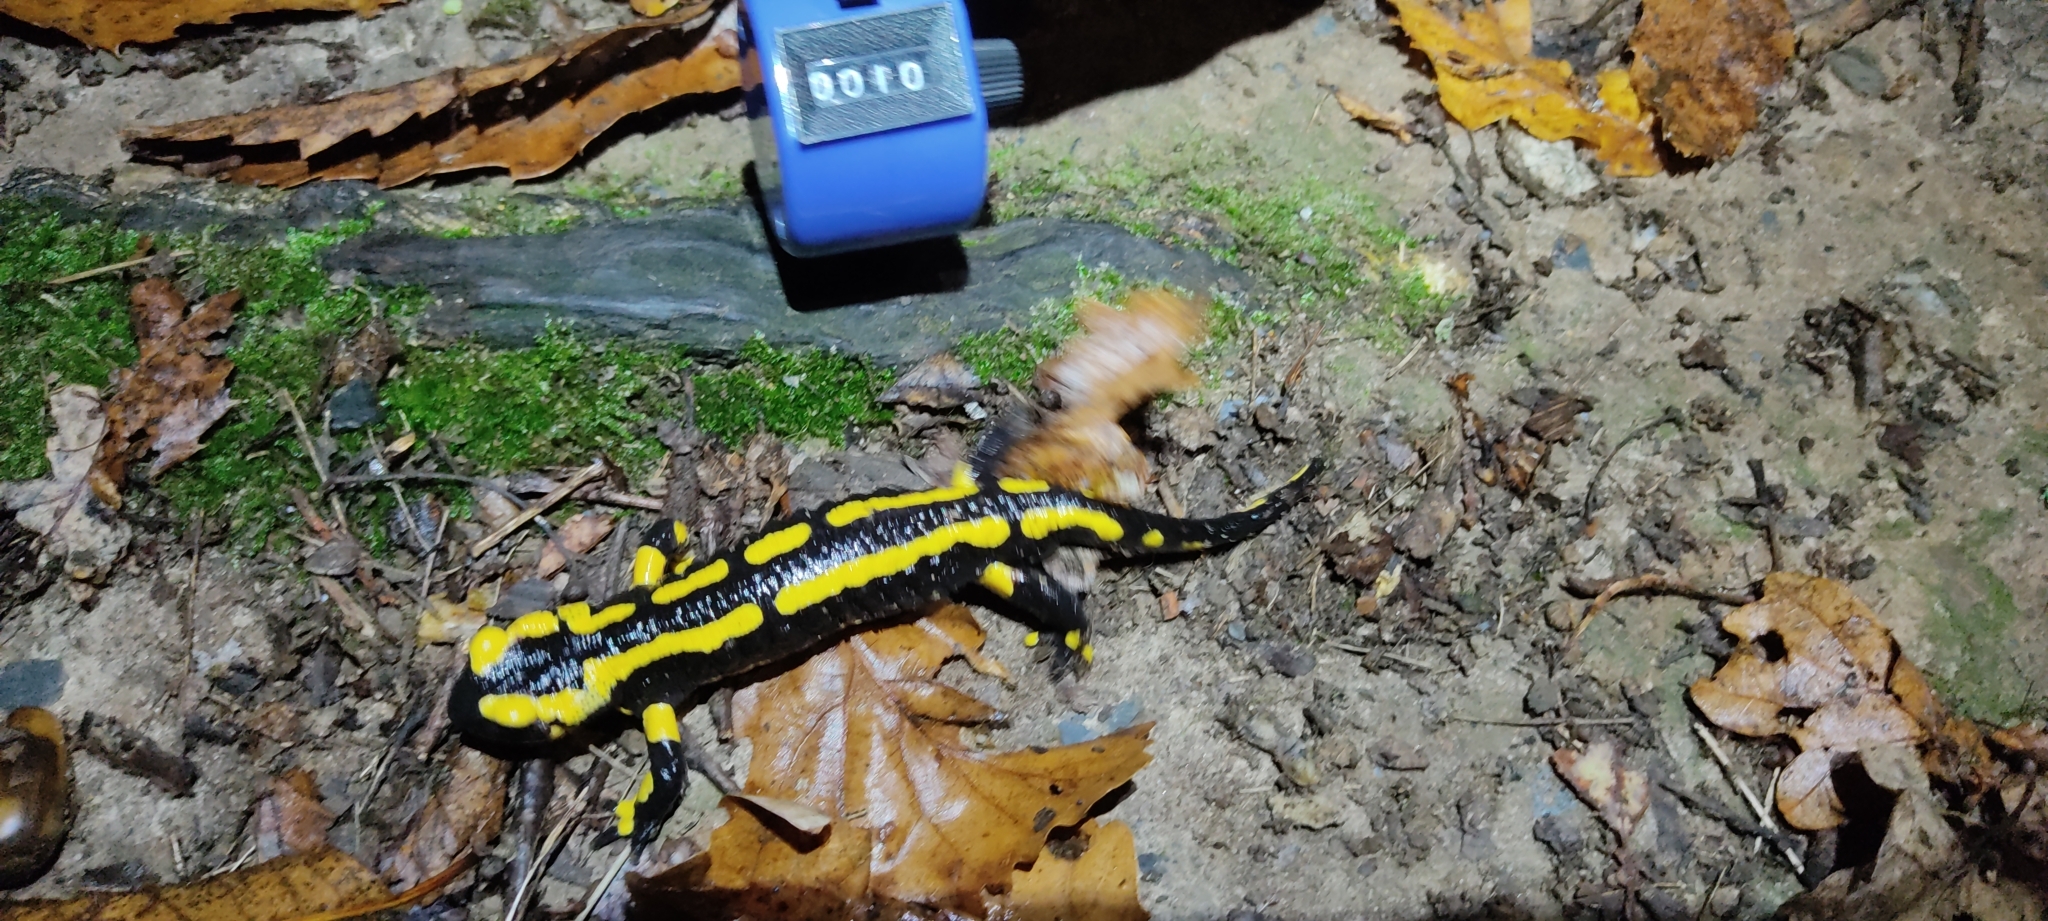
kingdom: Animalia
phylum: Chordata
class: Amphibia
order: Caudata
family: Salamandridae
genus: Salamandra
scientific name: Salamandra salamandra
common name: Fire salamander
